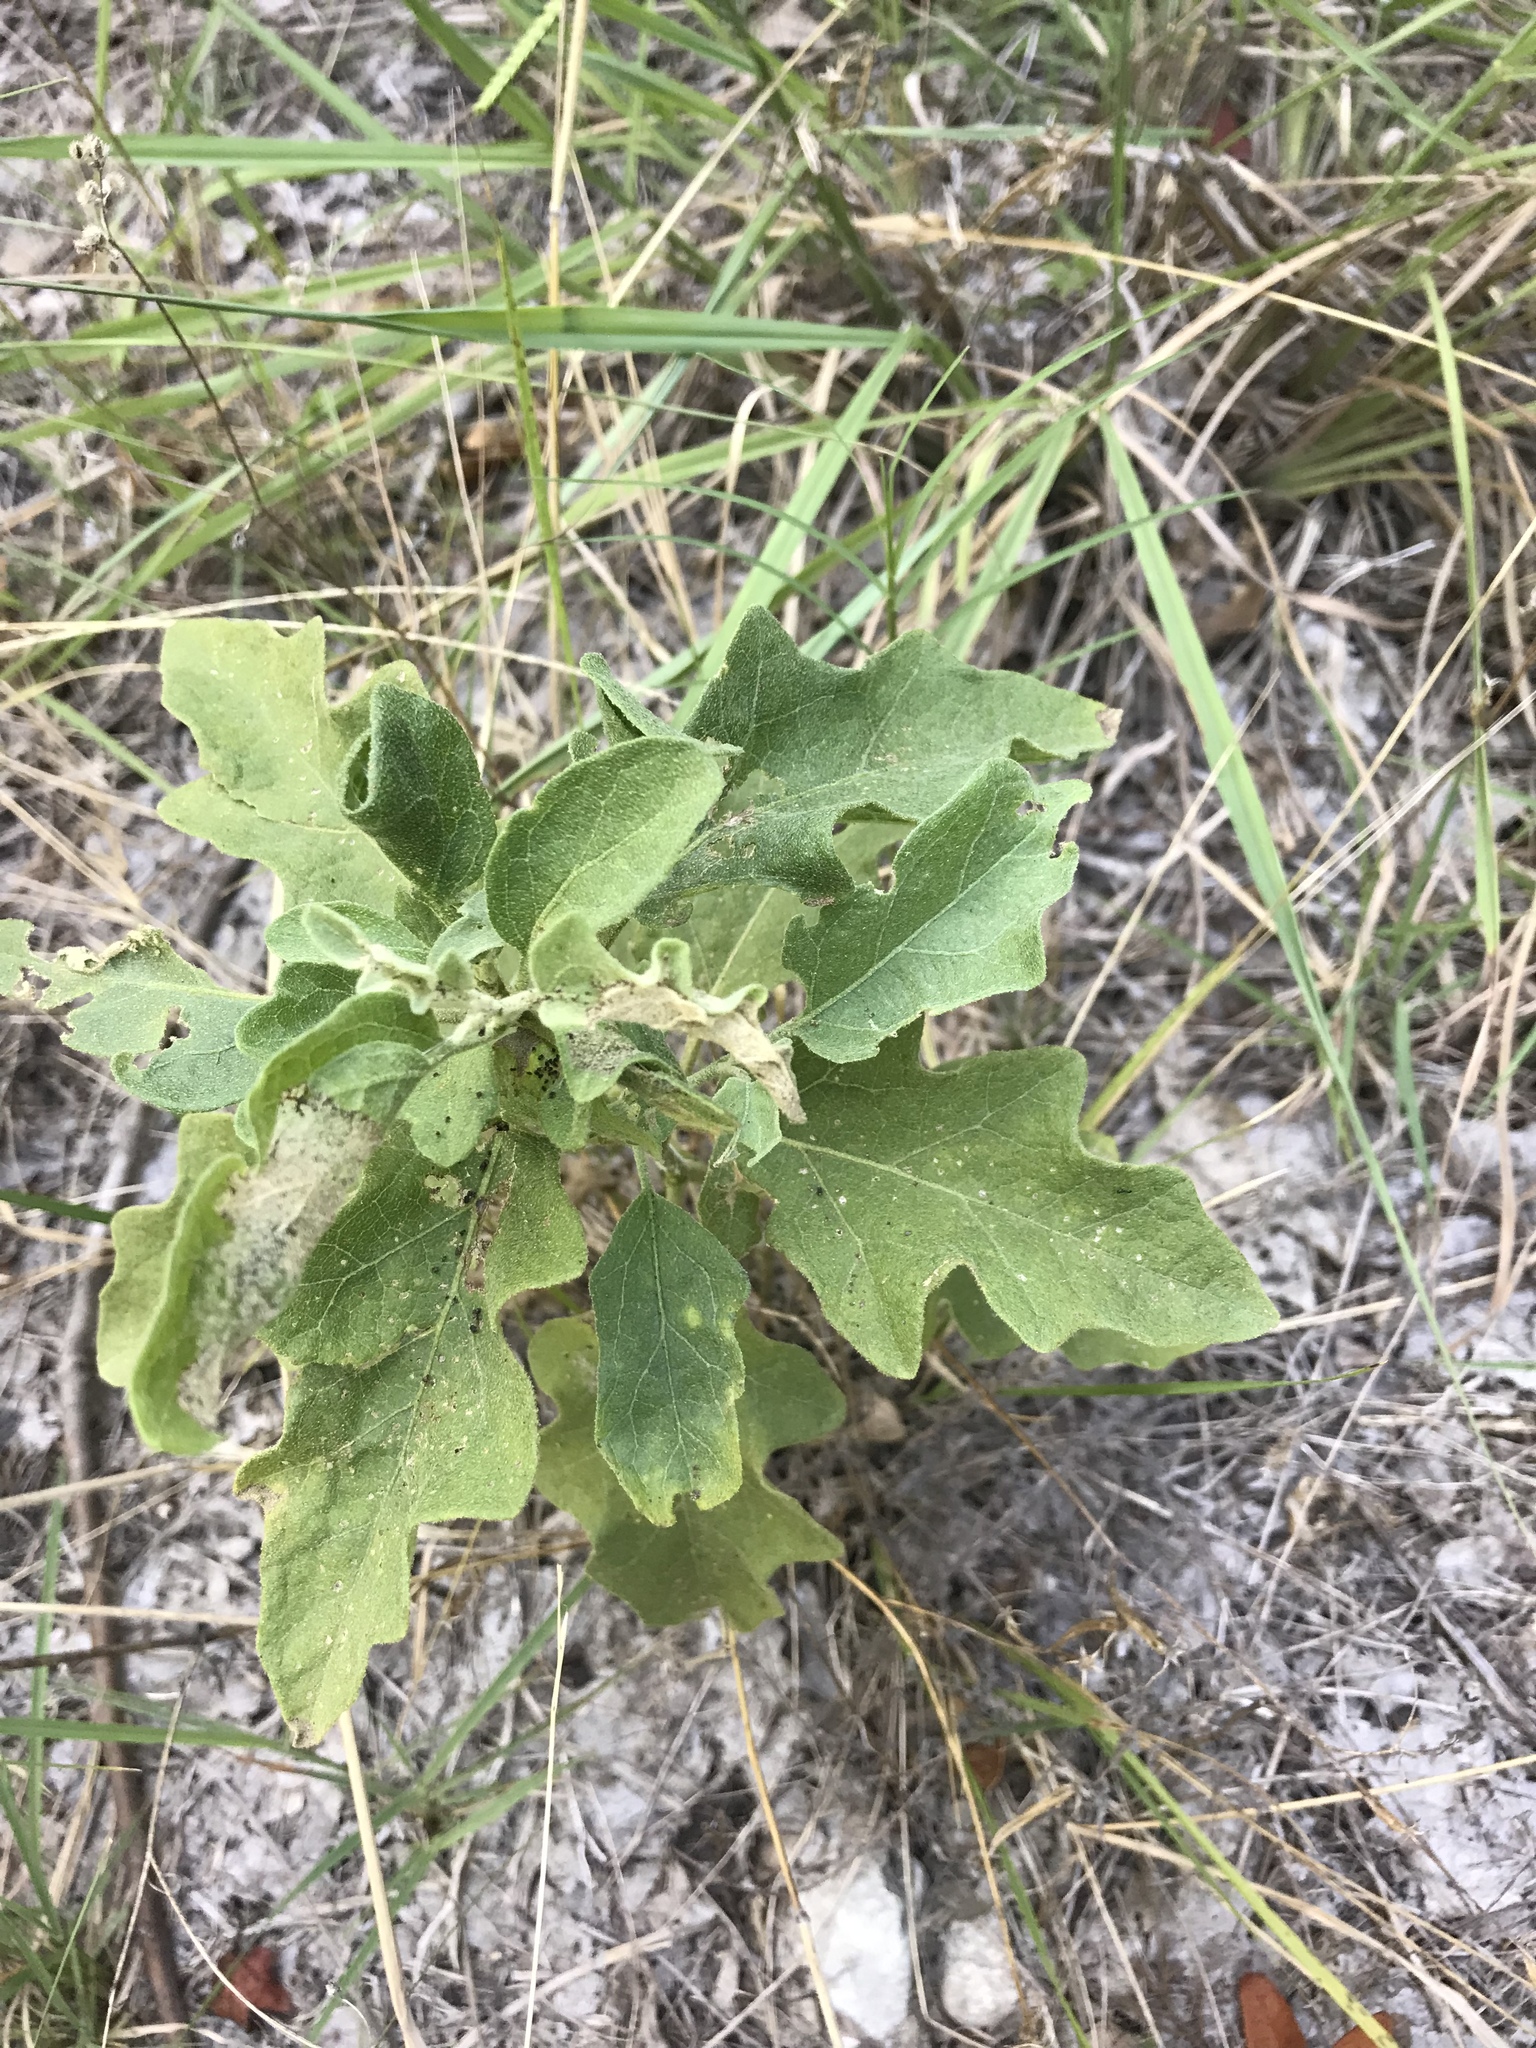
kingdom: Plantae
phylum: Tracheophyta
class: Magnoliopsida
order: Solanales
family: Solanaceae
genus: Solanum
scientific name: Solanum dimidiatum
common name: Carolina horse-nettle
